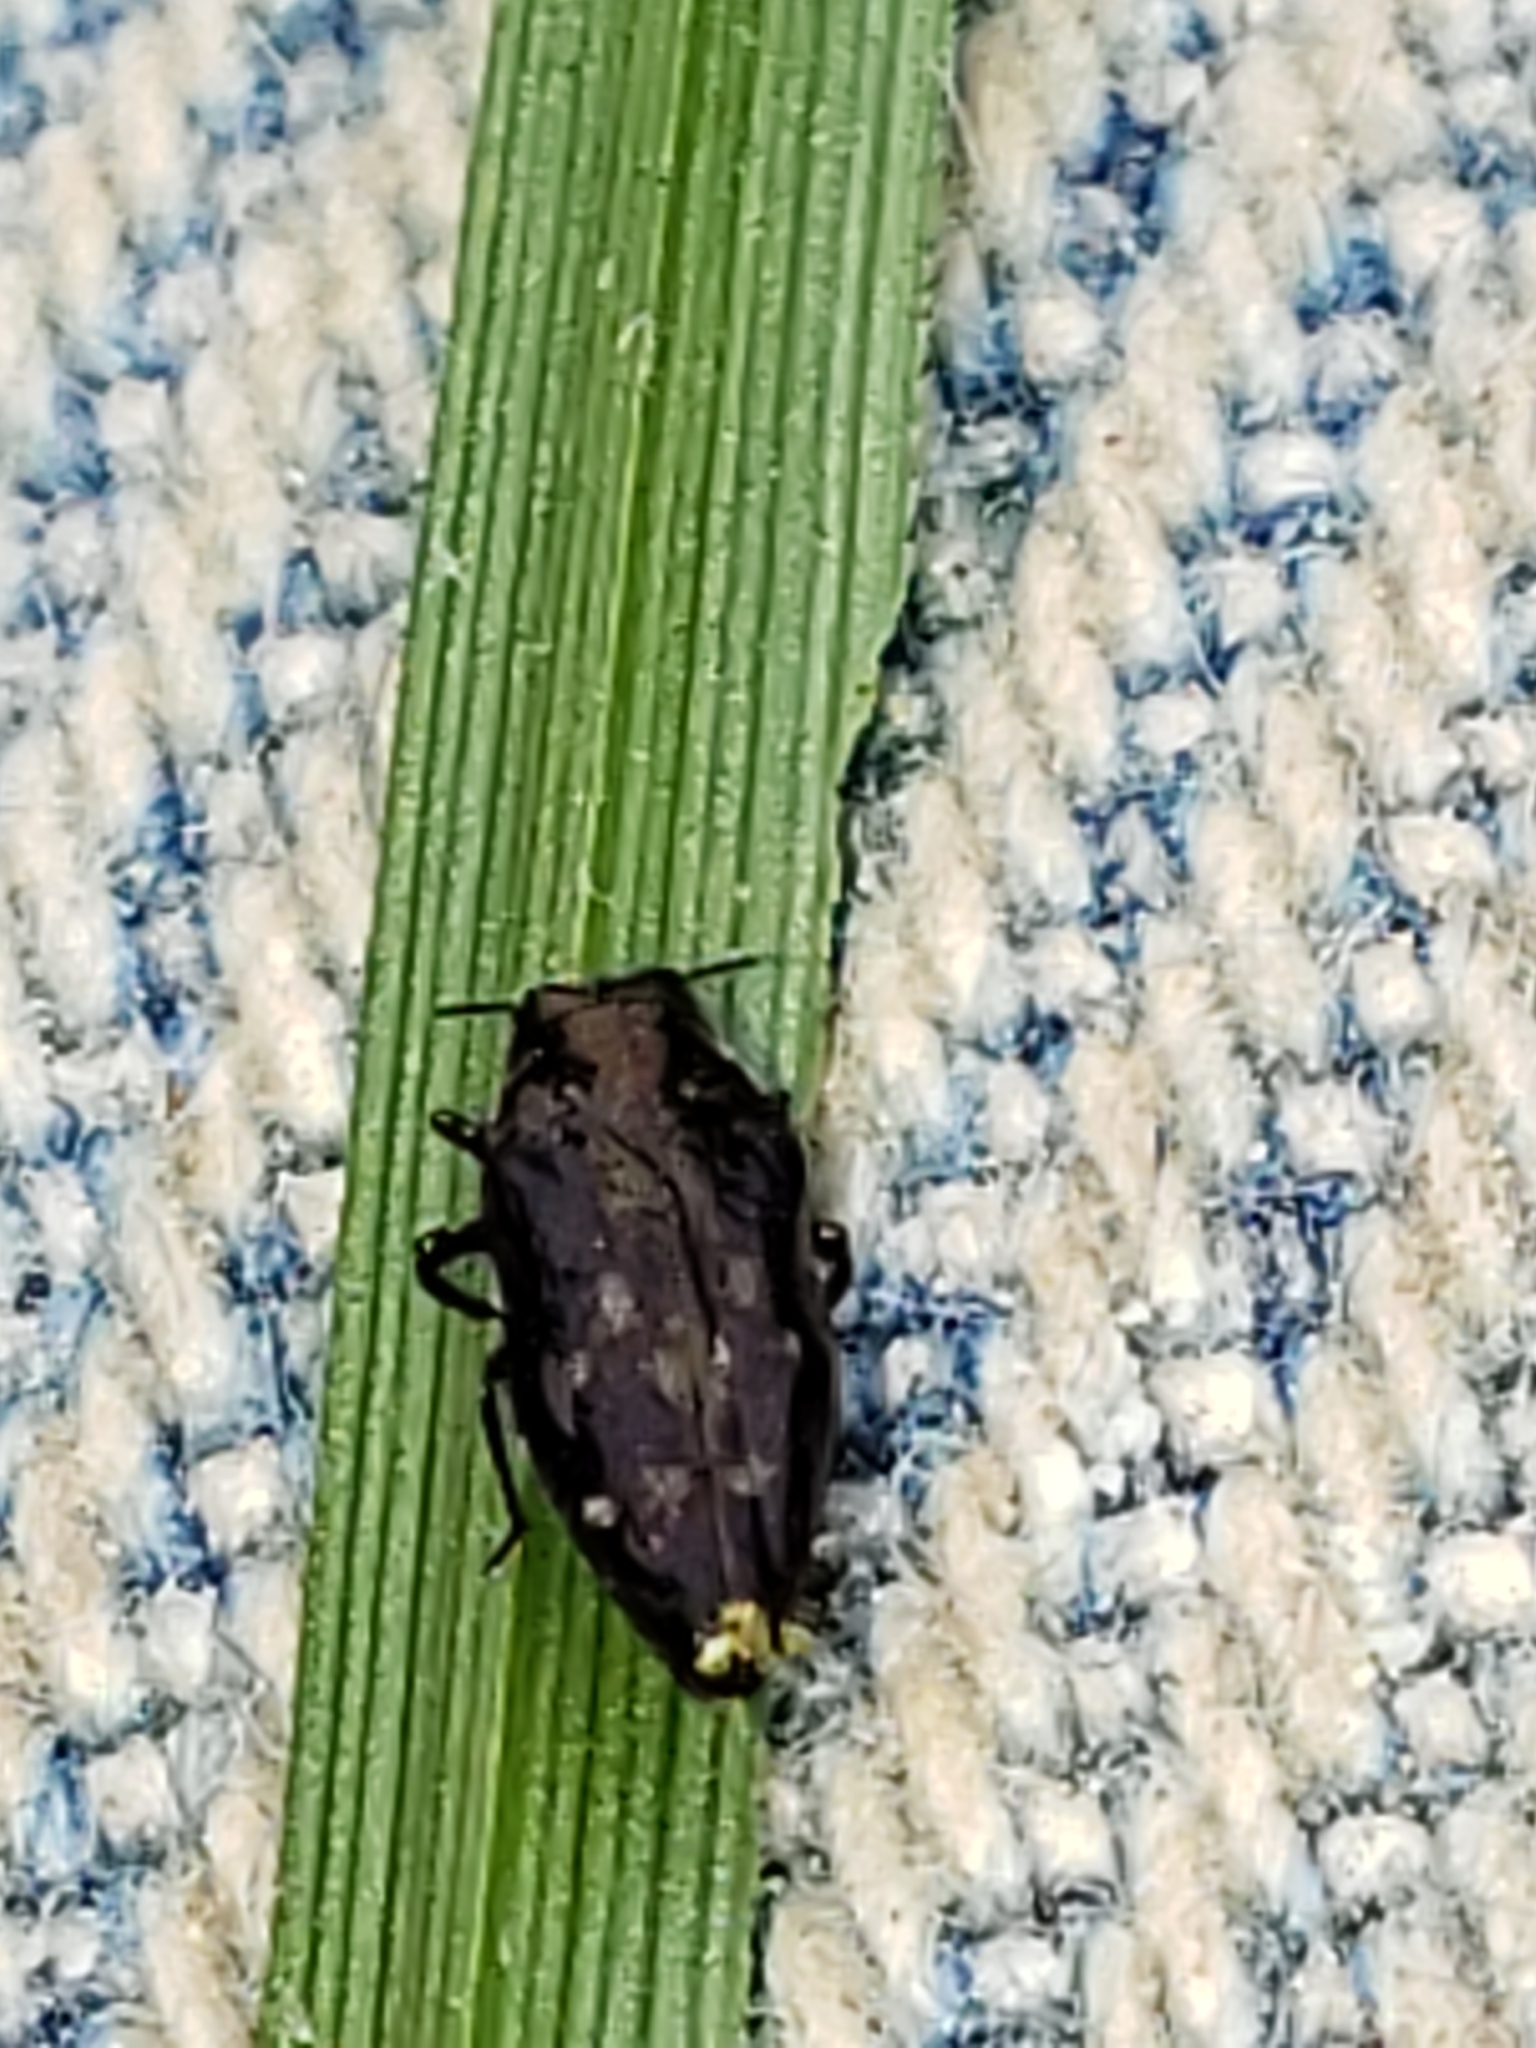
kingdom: Animalia
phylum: Arthropoda
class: Insecta
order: Coleoptera
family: Buprestidae
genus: Taphrocerus
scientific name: Taphrocerus gracilis
